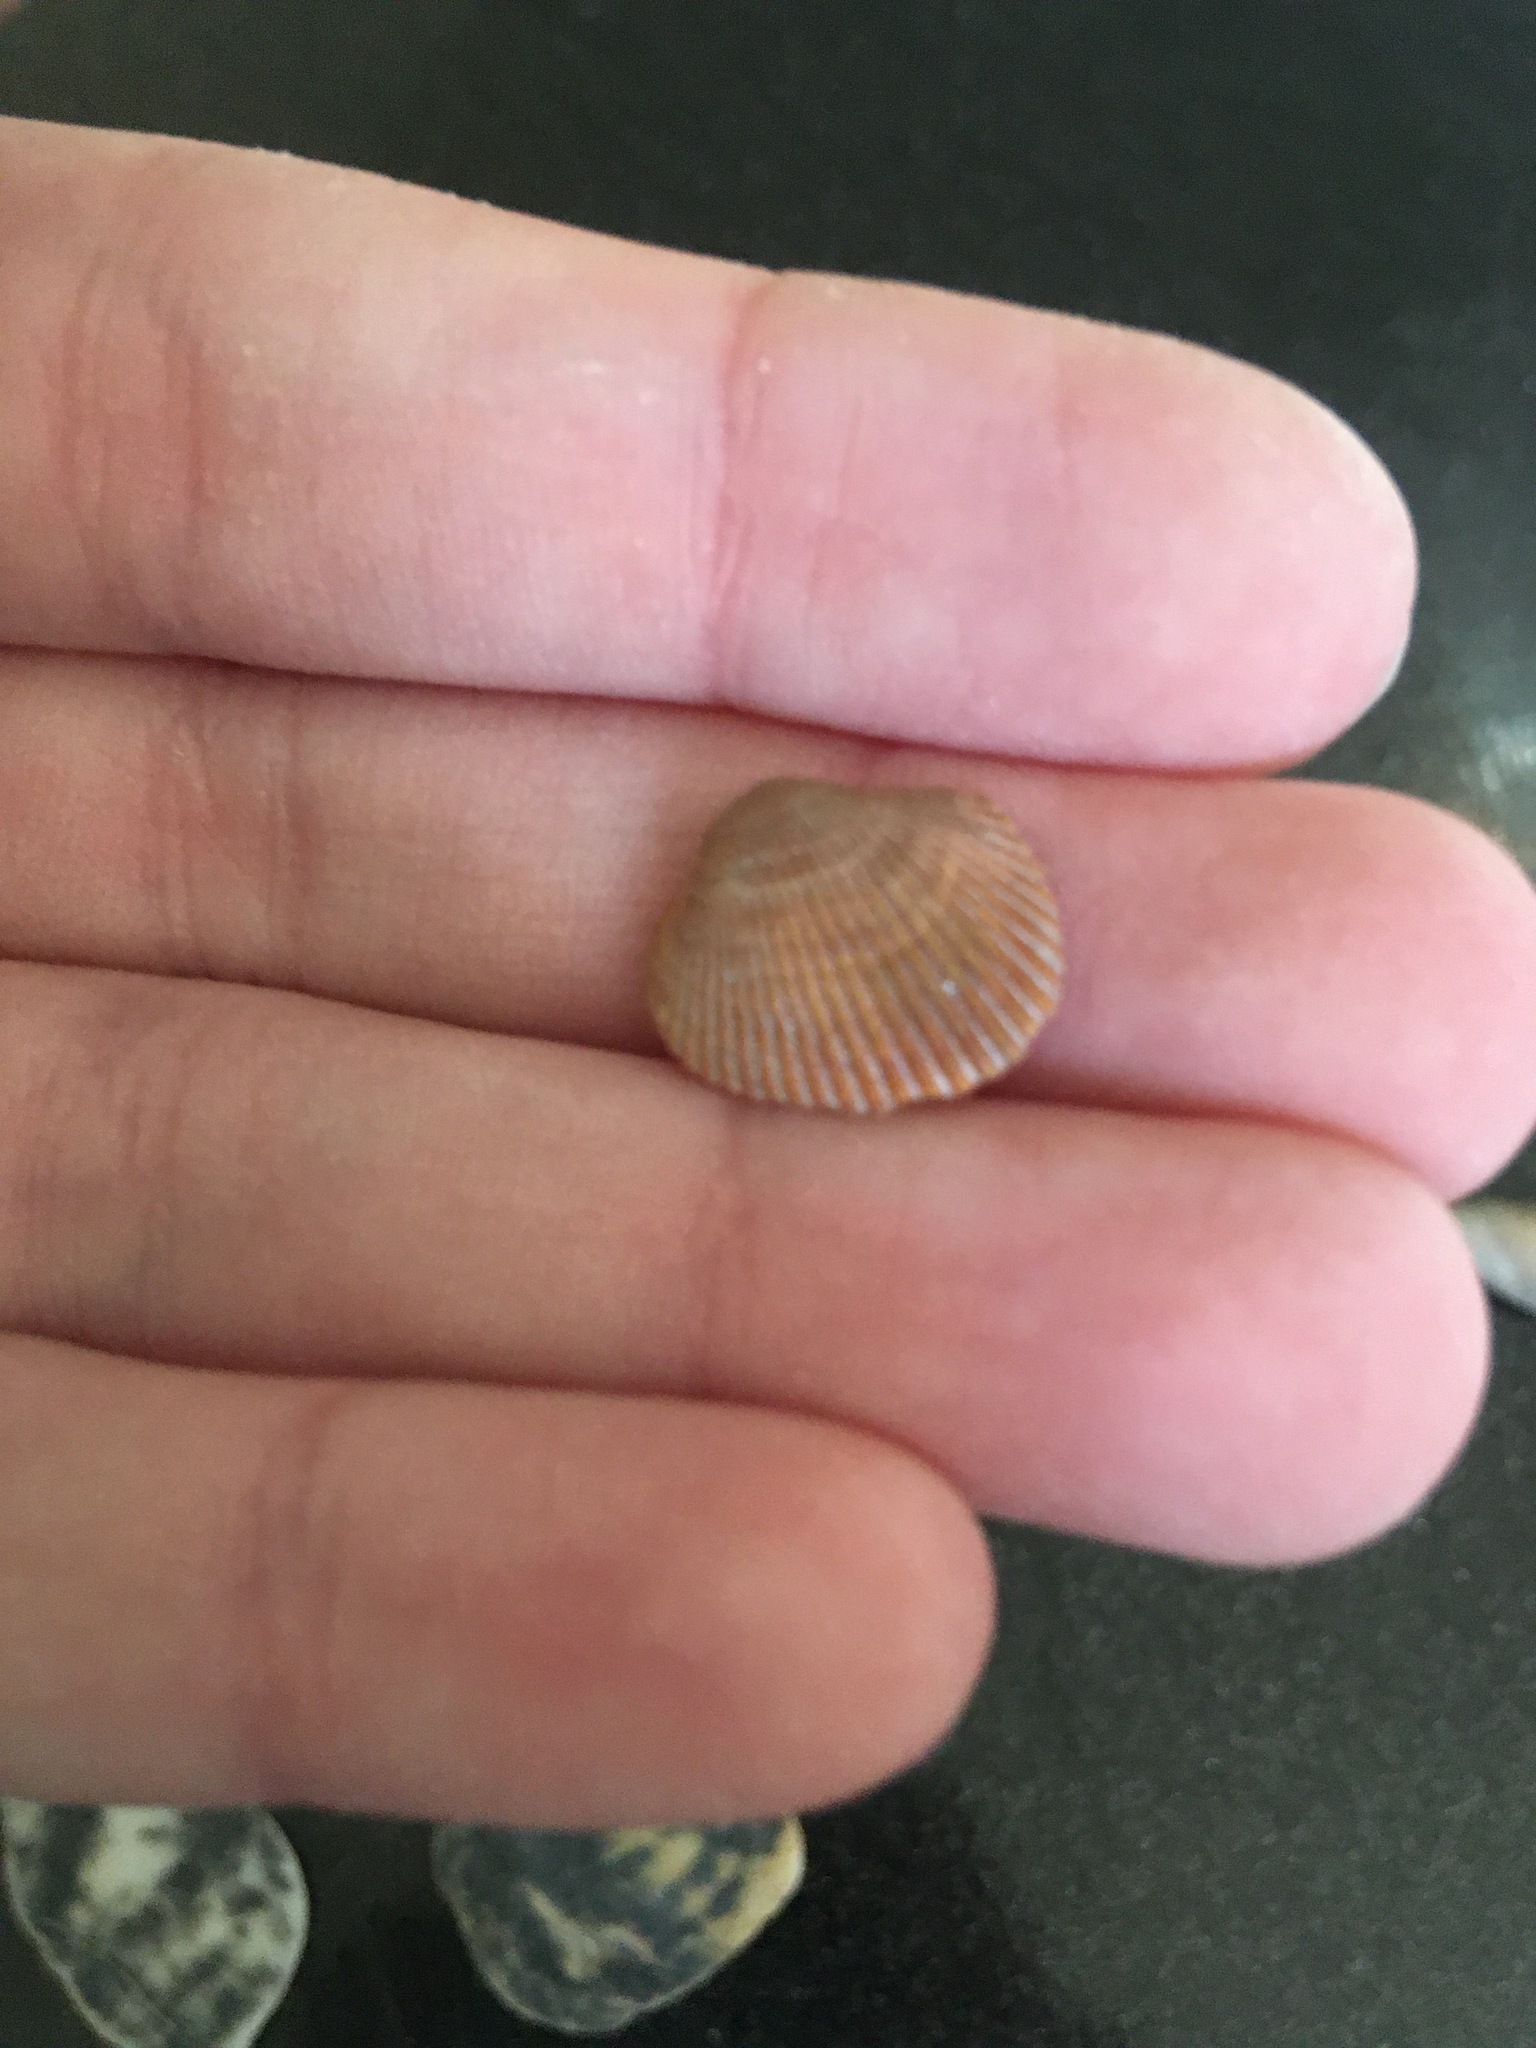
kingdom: Animalia
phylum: Mollusca
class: Bivalvia
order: Arcida
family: Arcidae
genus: Lunarca
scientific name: Lunarca ovalis
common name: Blood ark
